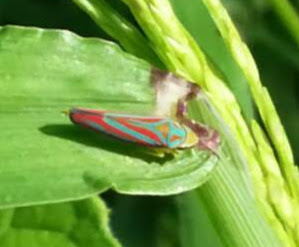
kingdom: Animalia
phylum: Arthropoda
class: Insecta
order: Hemiptera
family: Cicadellidae
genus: Graphocephala
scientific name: Graphocephala coccinea
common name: Candy-striped leafhopper
